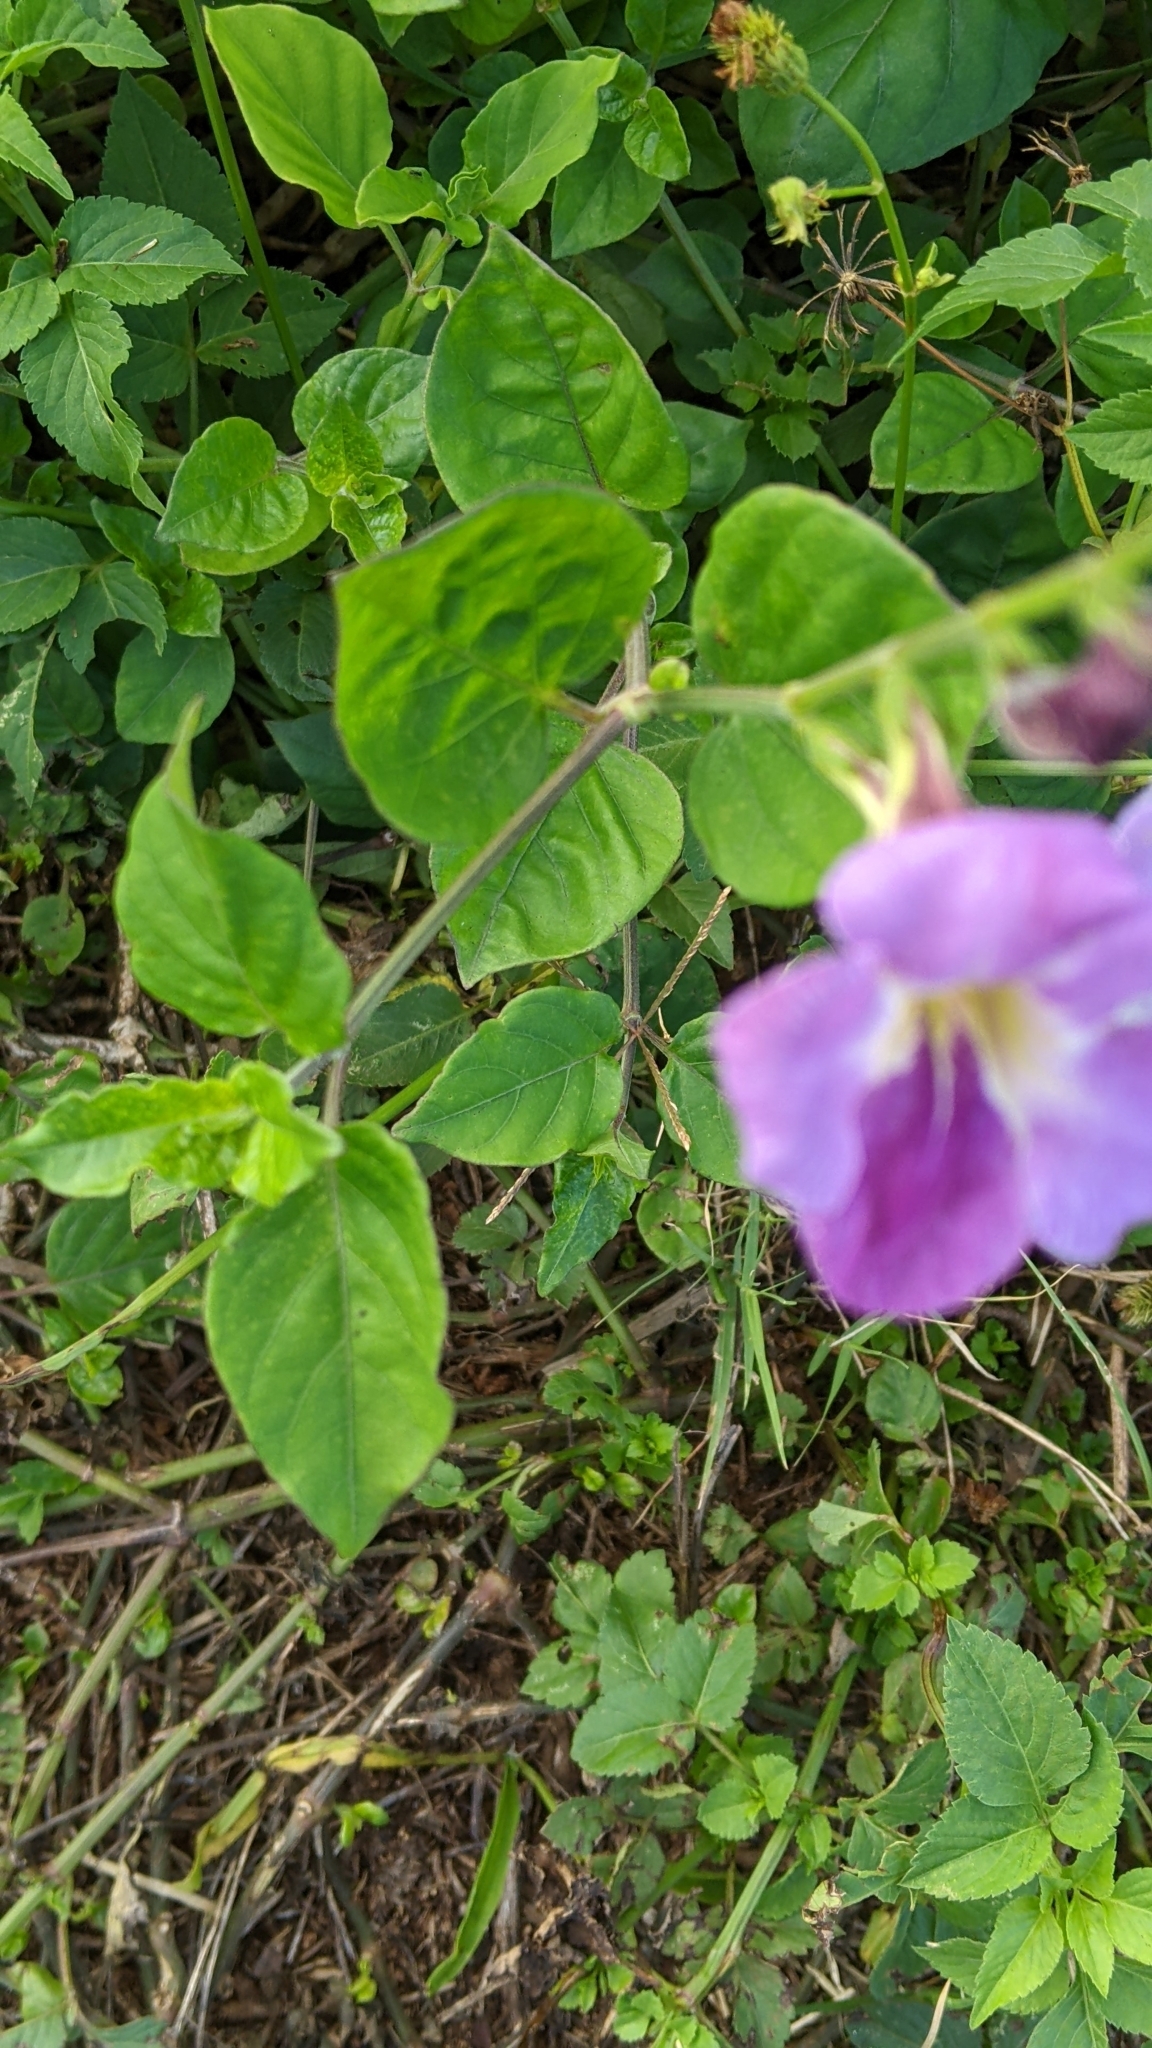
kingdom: Plantae
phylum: Tracheophyta
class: Magnoliopsida
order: Lamiales
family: Acanthaceae
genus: Asystasia
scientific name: Asystasia gangetica
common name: Chinese violet
